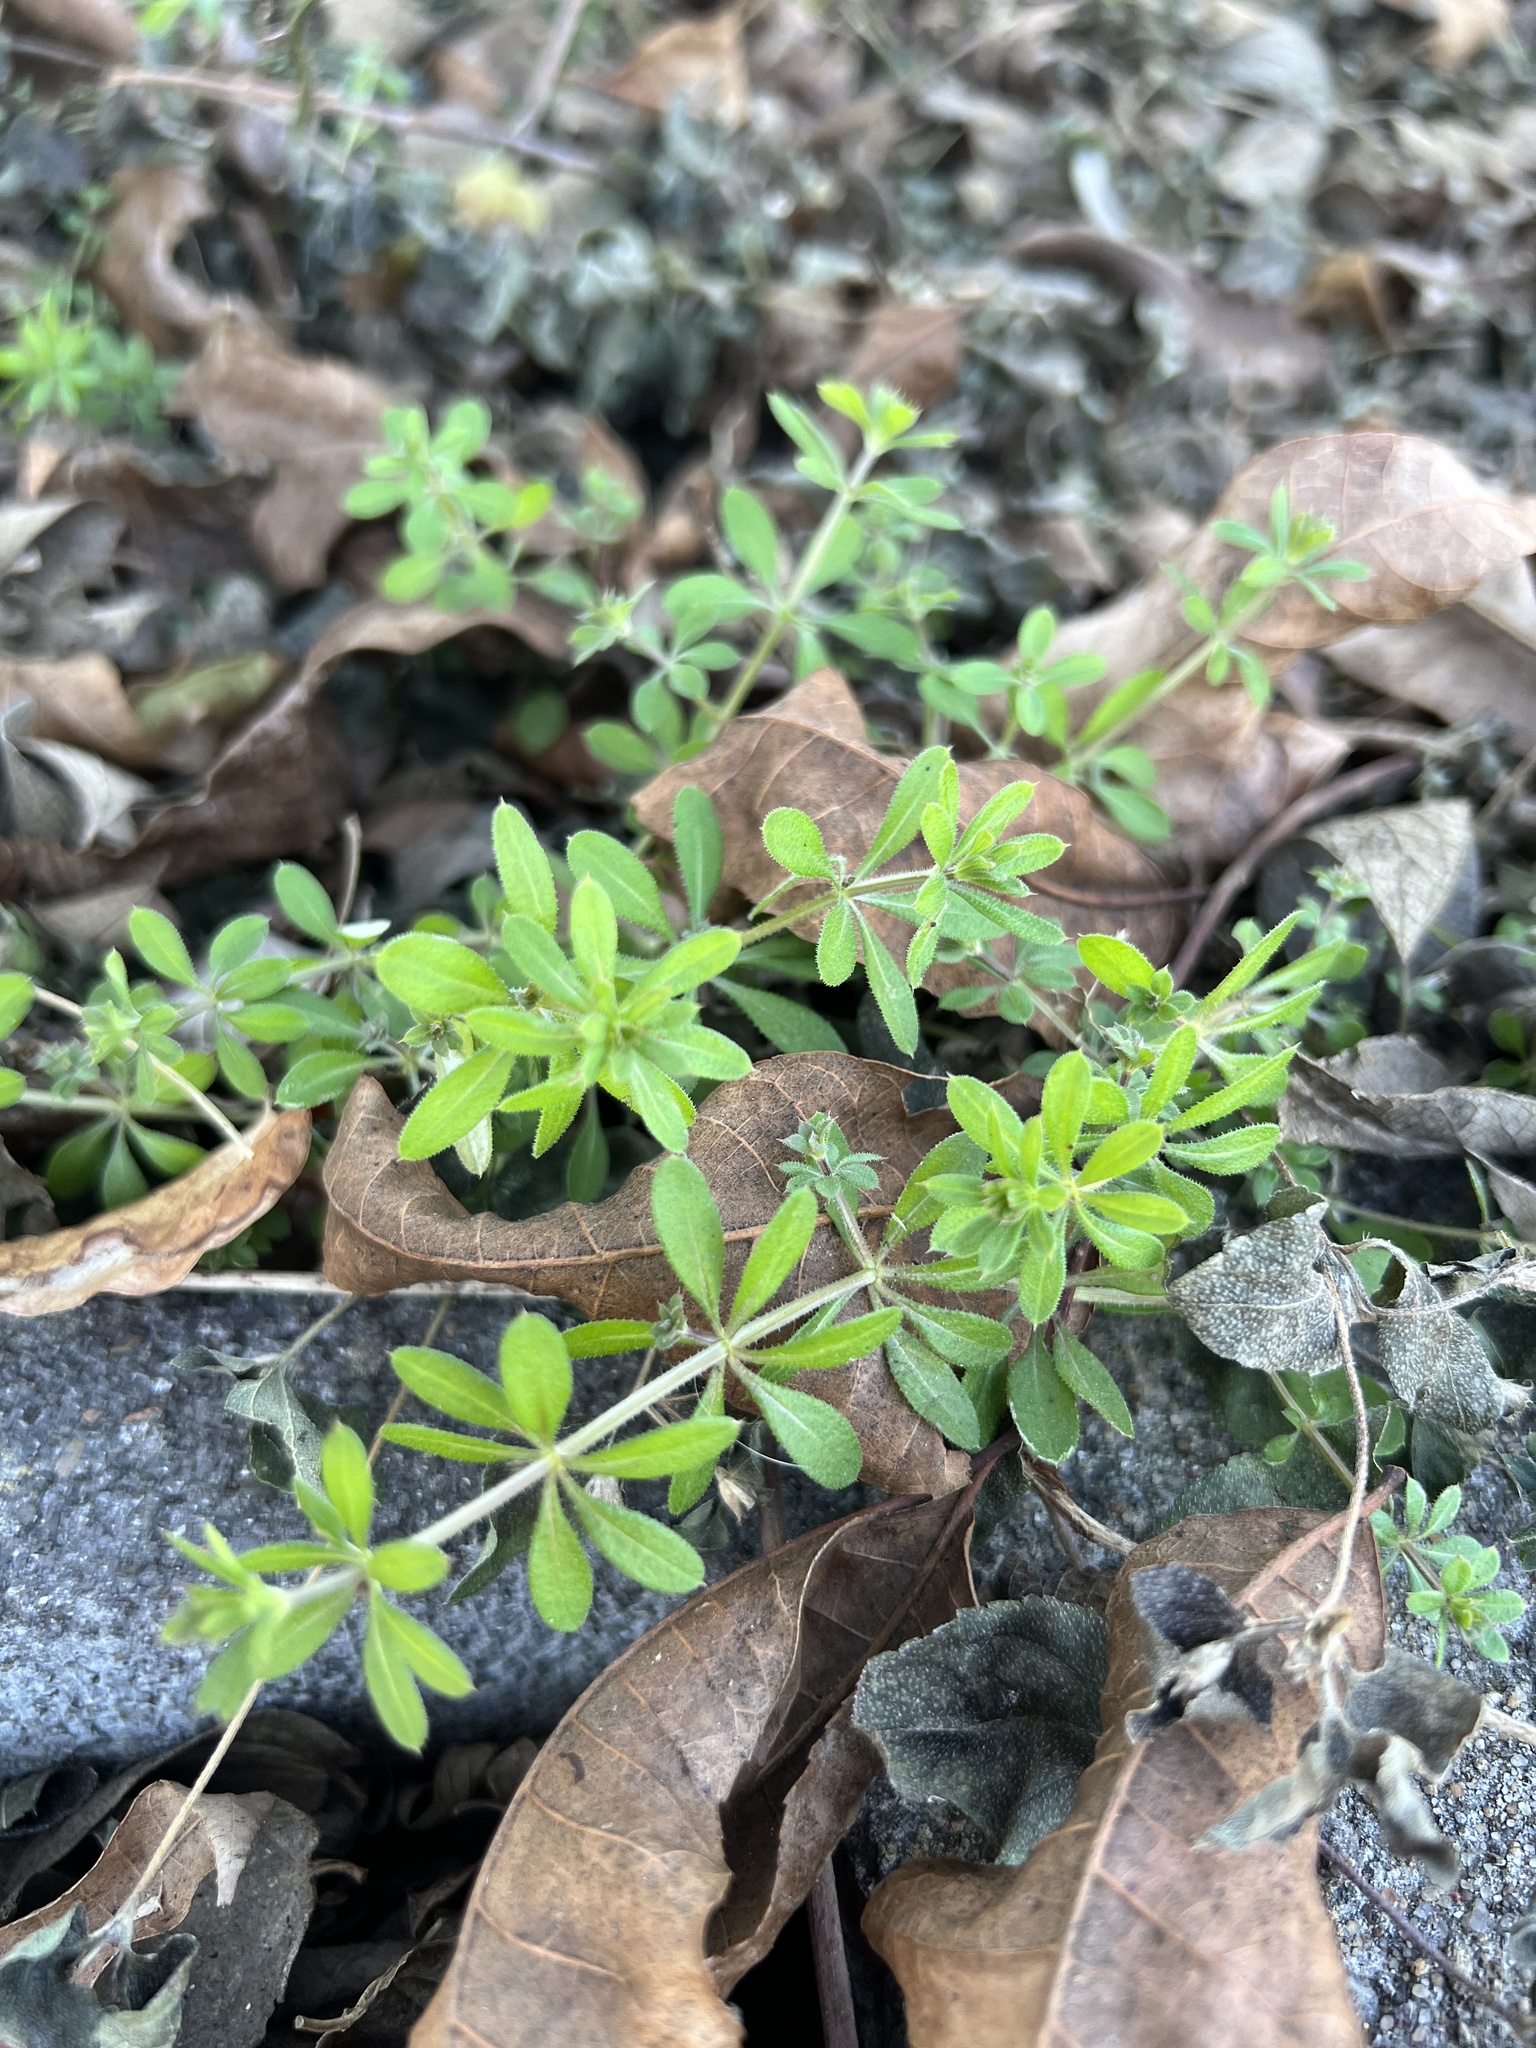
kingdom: Plantae
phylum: Tracheophyta
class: Magnoliopsida
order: Gentianales
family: Rubiaceae
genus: Galium
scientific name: Galium aparine
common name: Cleavers
